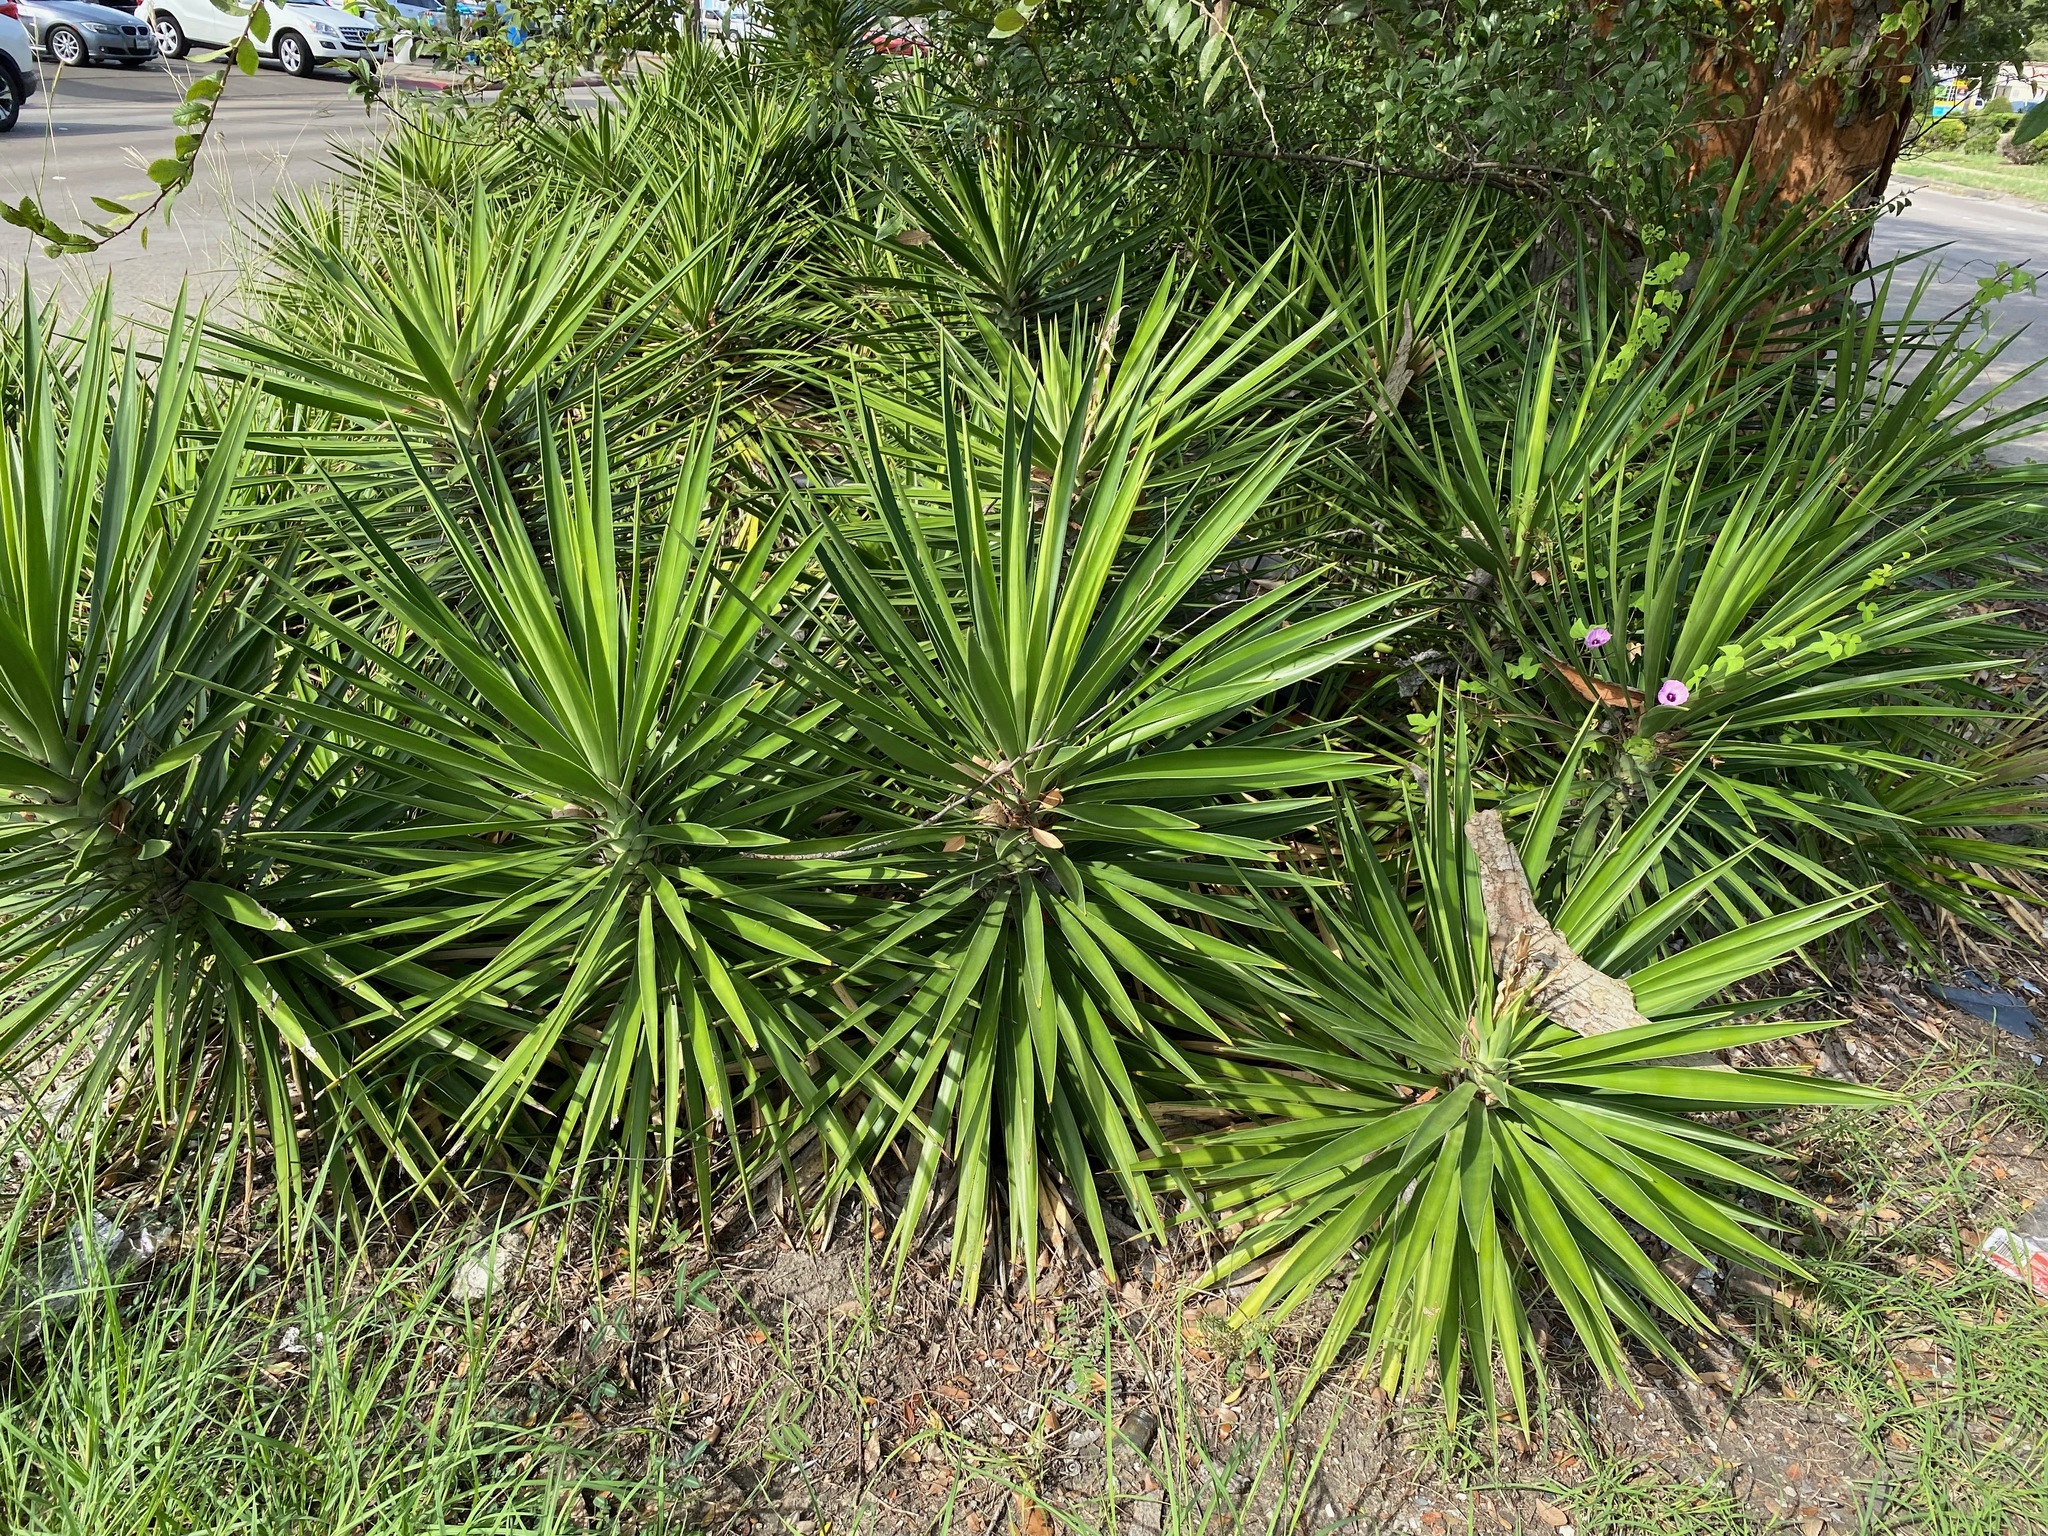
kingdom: Plantae
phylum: Tracheophyta
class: Liliopsida
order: Asparagales
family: Asparagaceae
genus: Yucca
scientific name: Yucca aloifolia
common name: Aloe yucca
